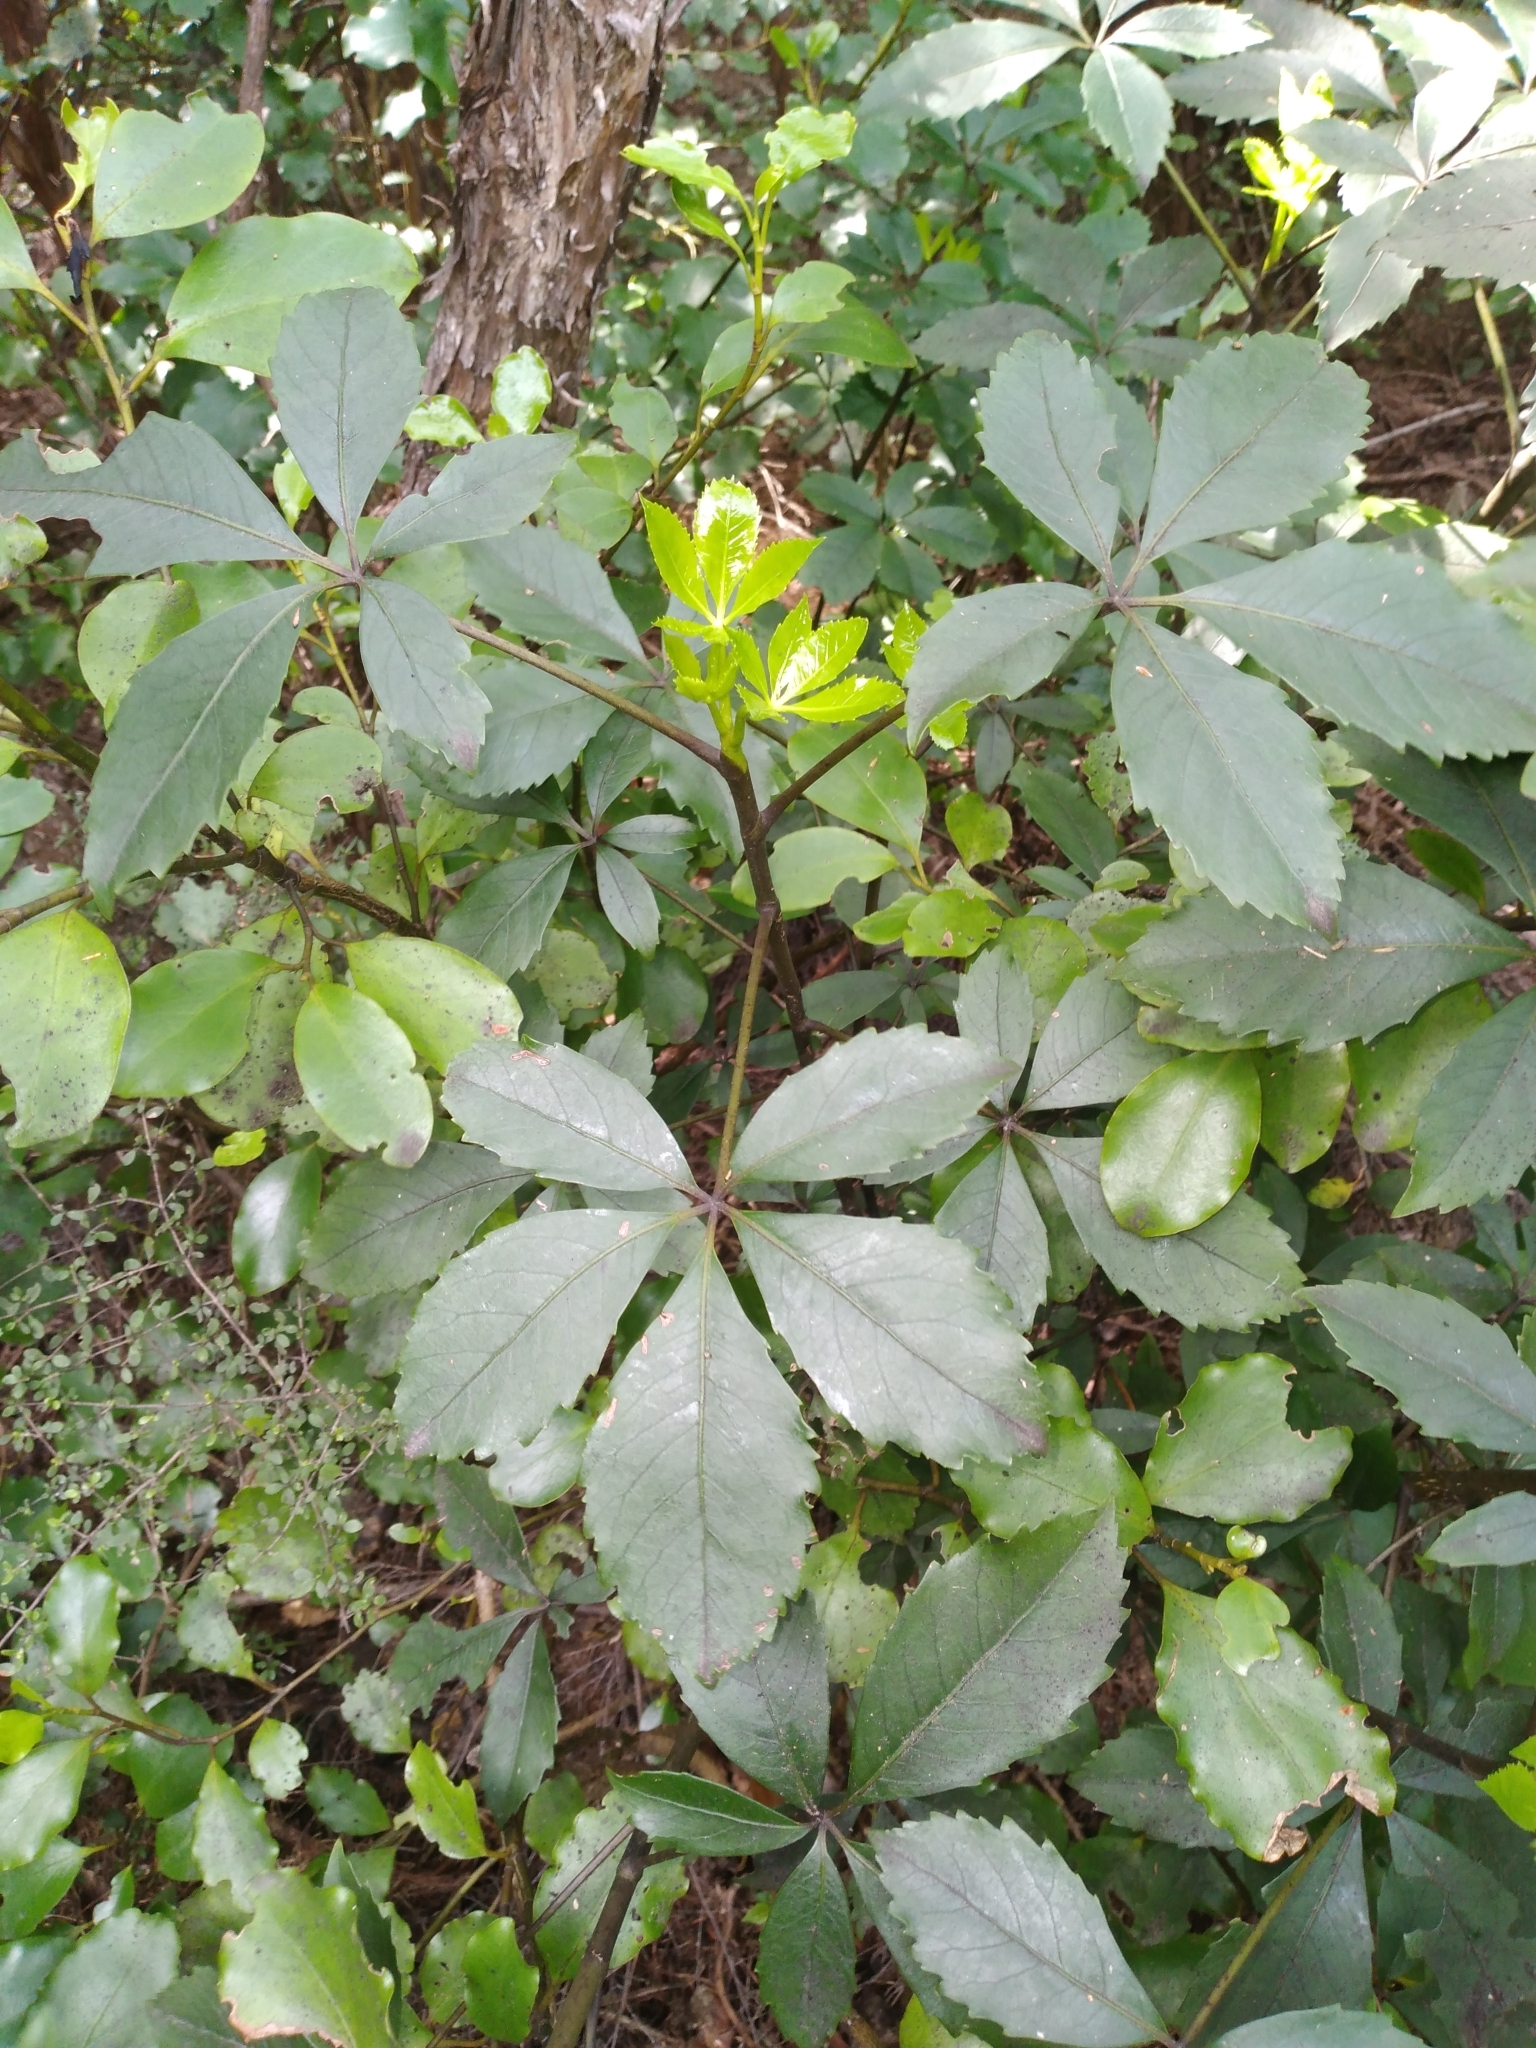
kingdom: Plantae
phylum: Tracheophyta
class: Magnoliopsida
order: Apiales
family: Araliaceae
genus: Neopanax
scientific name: Neopanax colensoi
